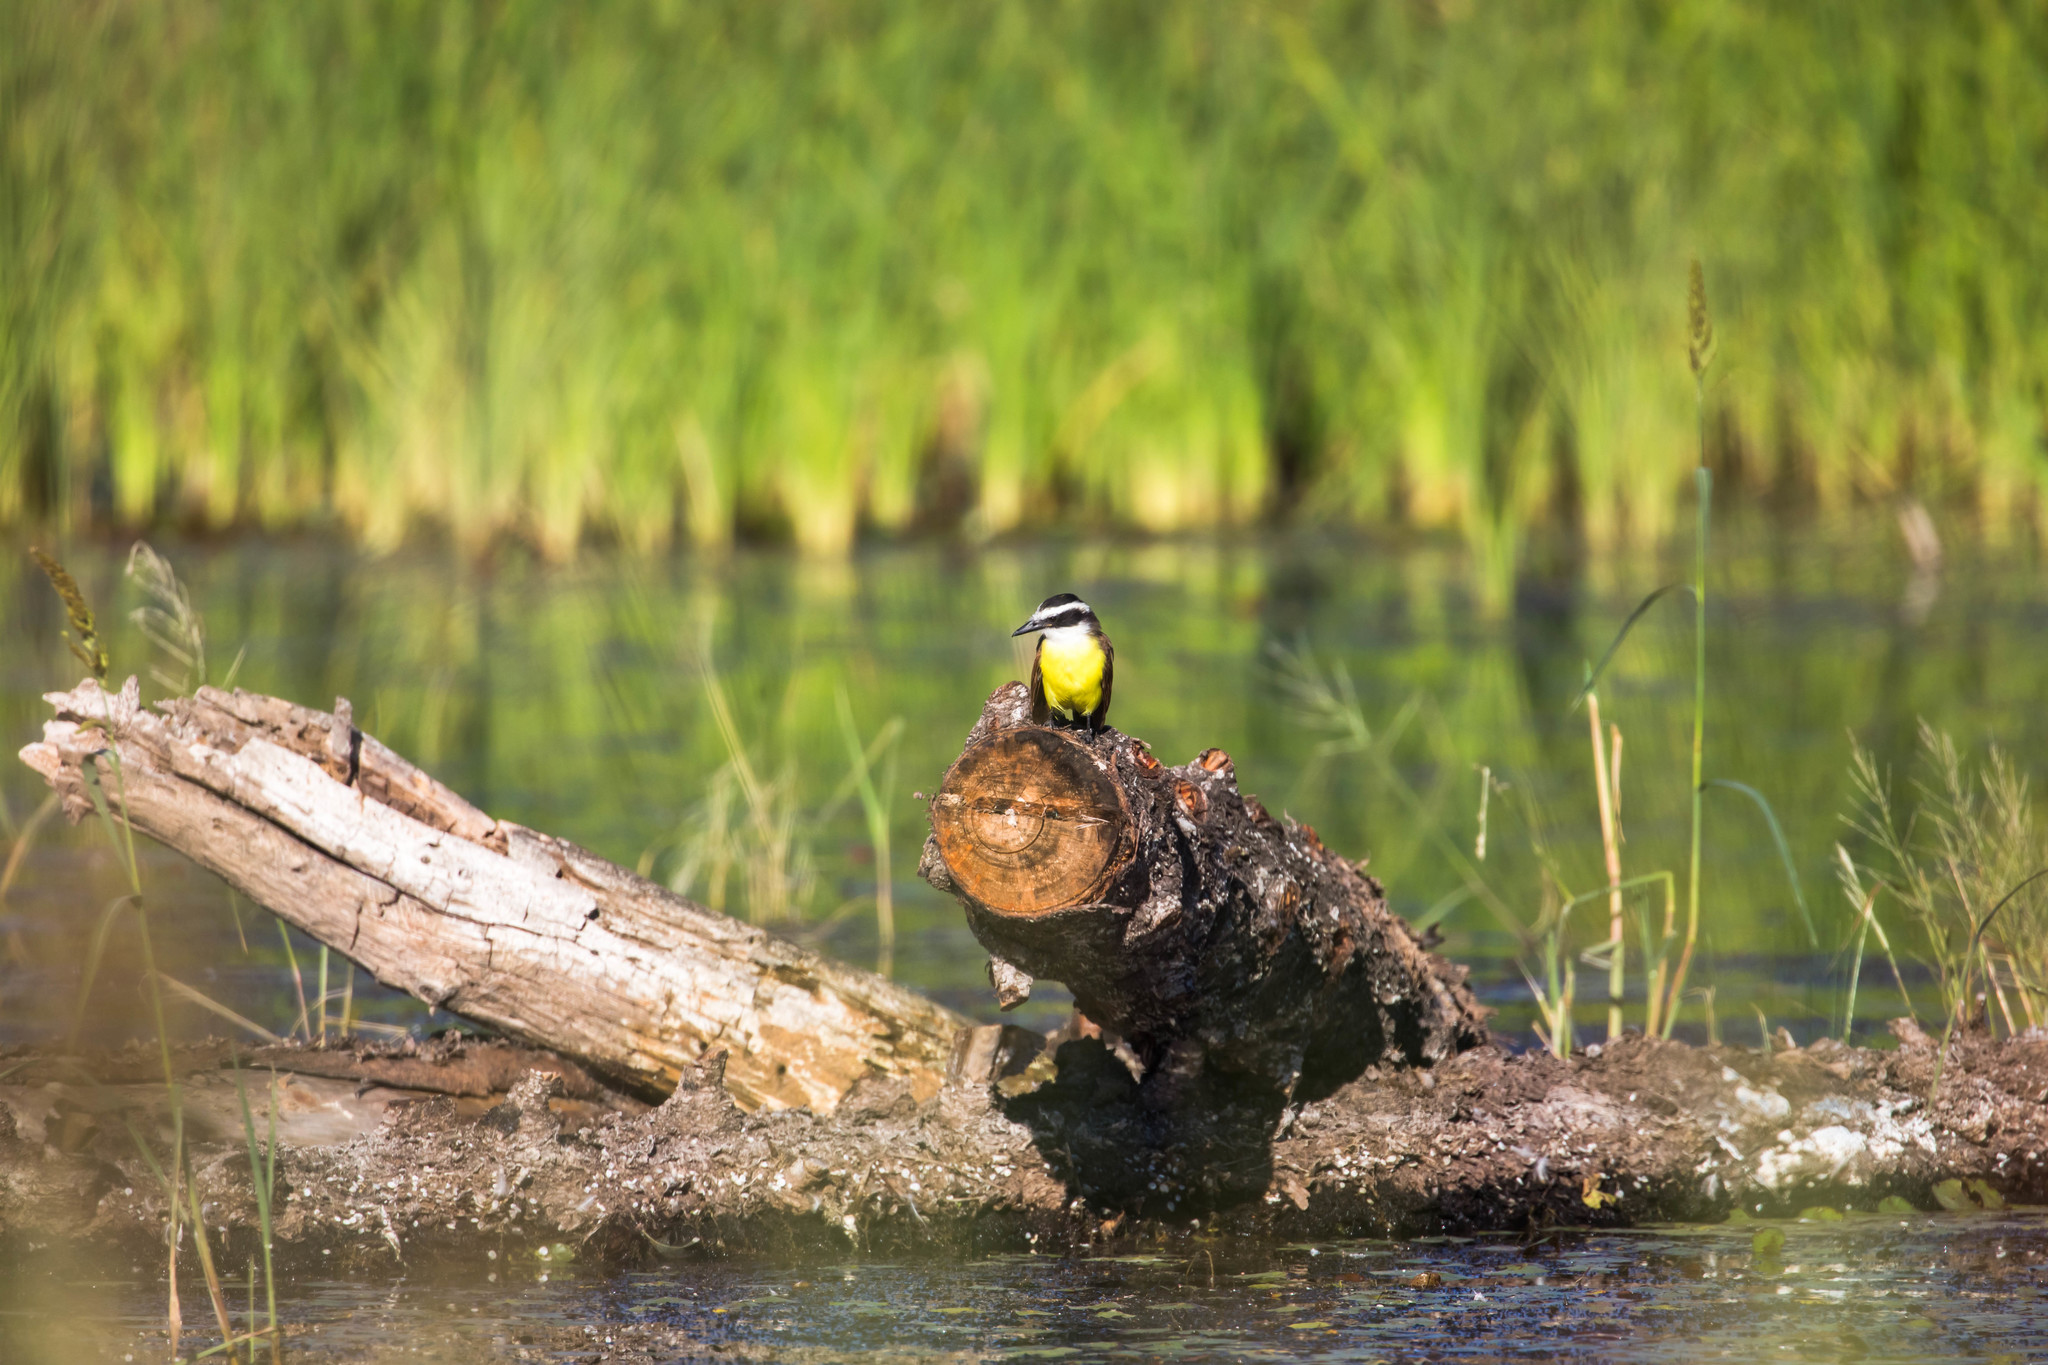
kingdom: Animalia
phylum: Chordata
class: Aves
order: Passeriformes
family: Tyrannidae
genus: Pitangus
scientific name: Pitangus sulphuratus
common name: Great kiskadee
